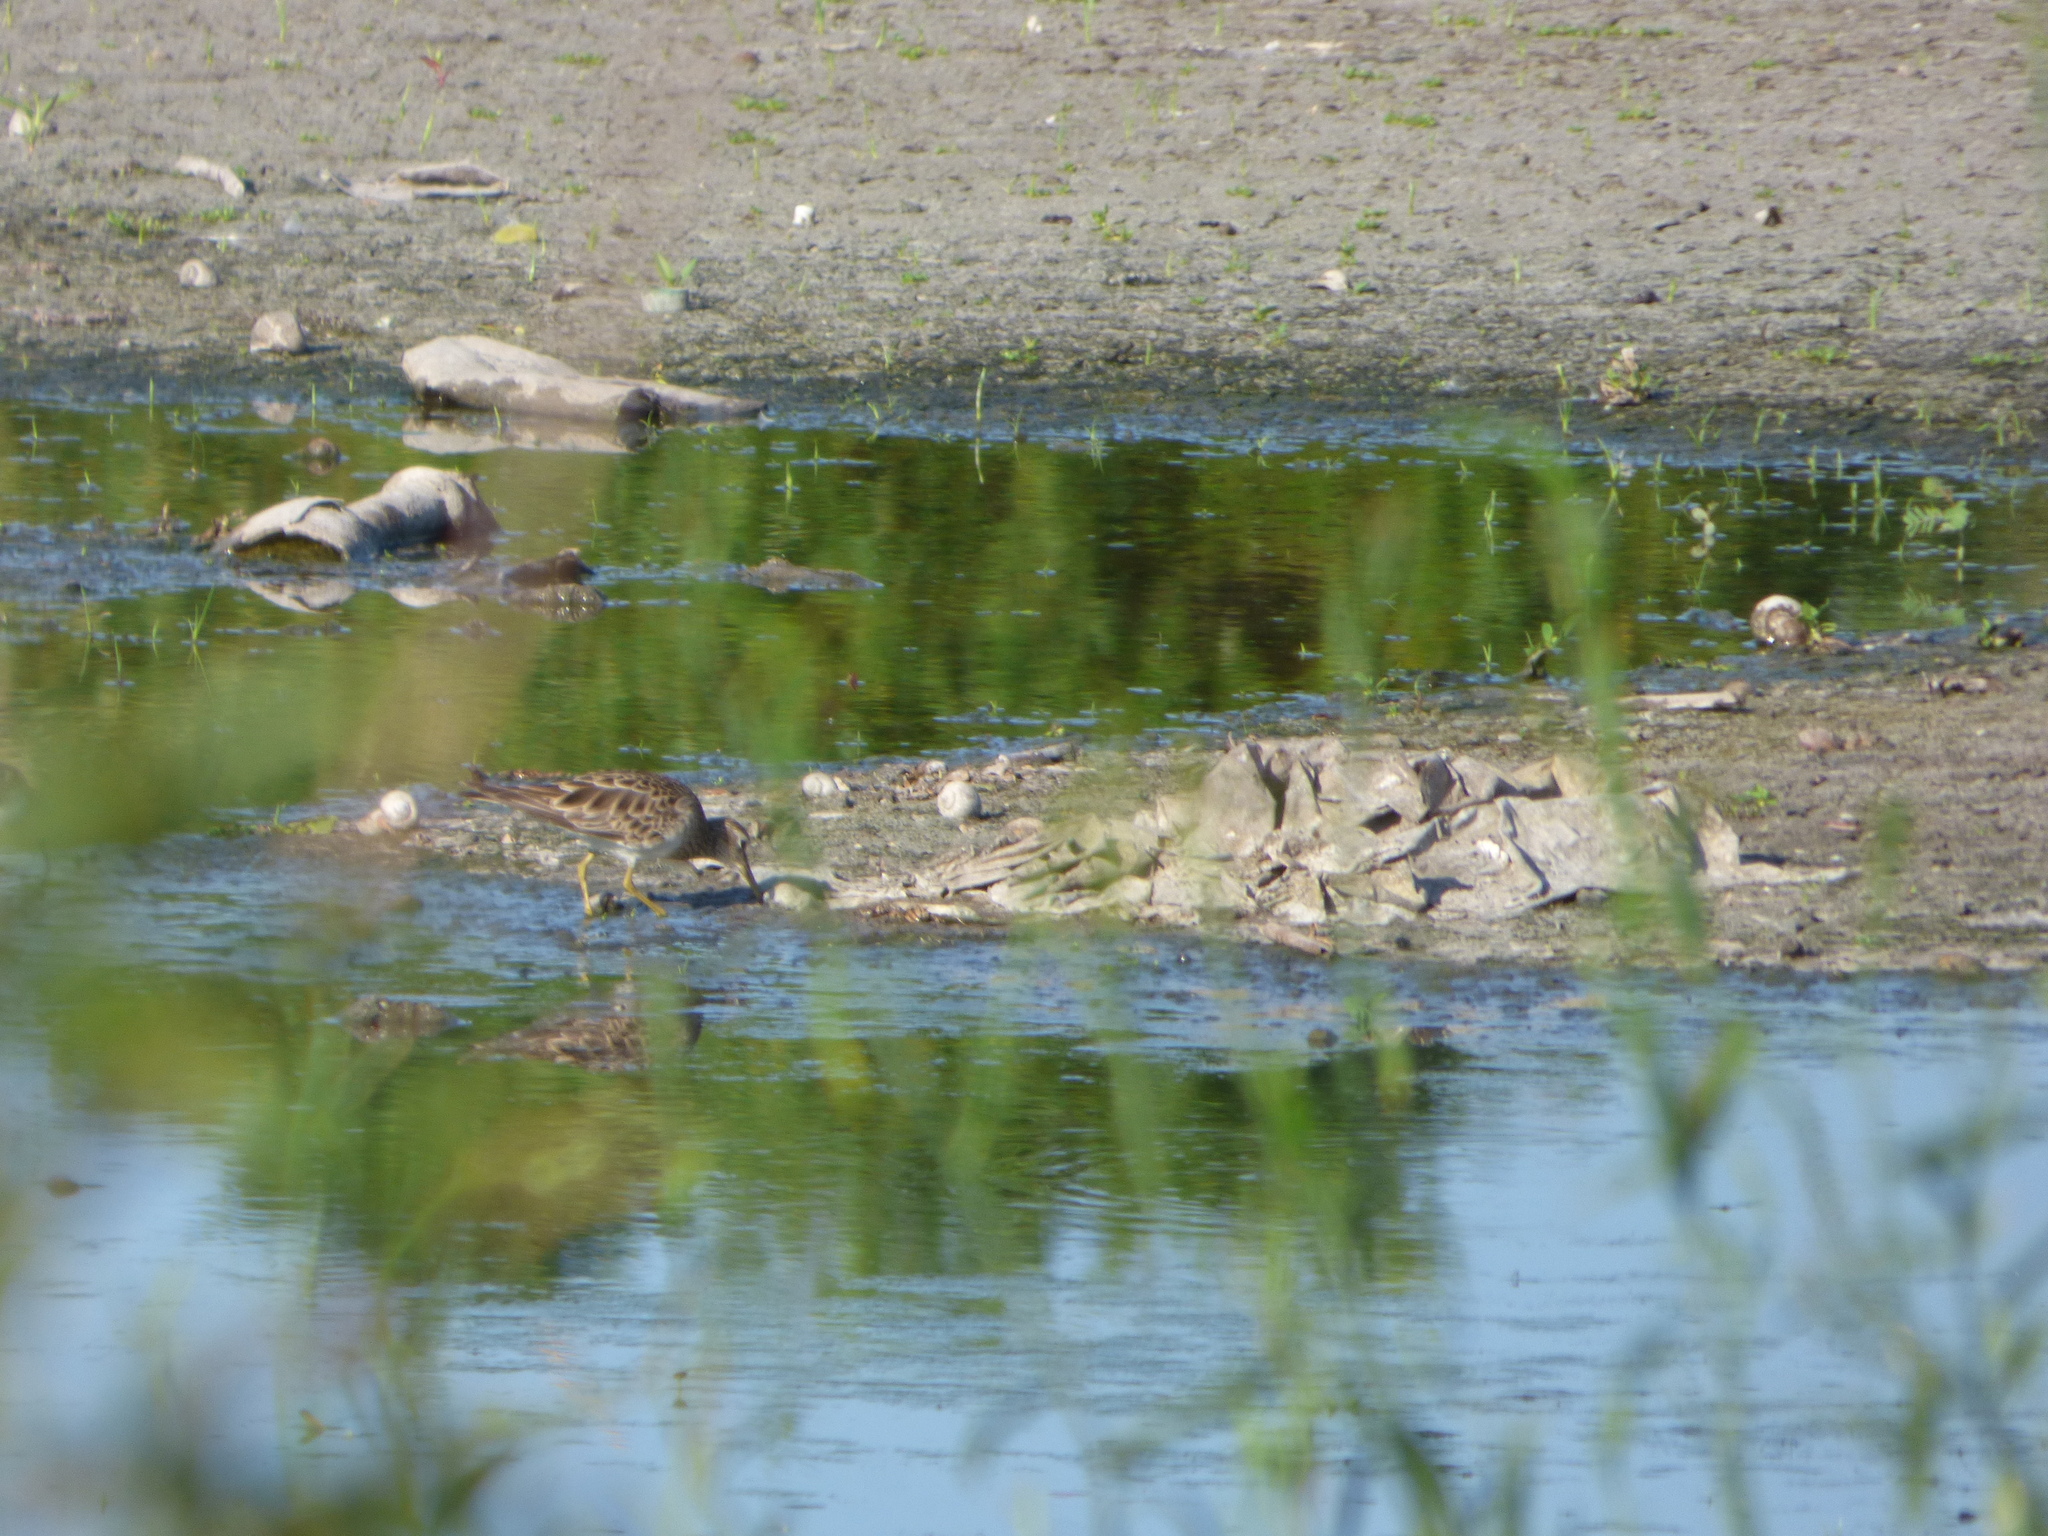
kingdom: Animalia
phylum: Chordata
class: Aves
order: Charadriiformes
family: Scolopacidae
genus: Calidris
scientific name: Calidris melanotos
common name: Pectoral sandpiper
